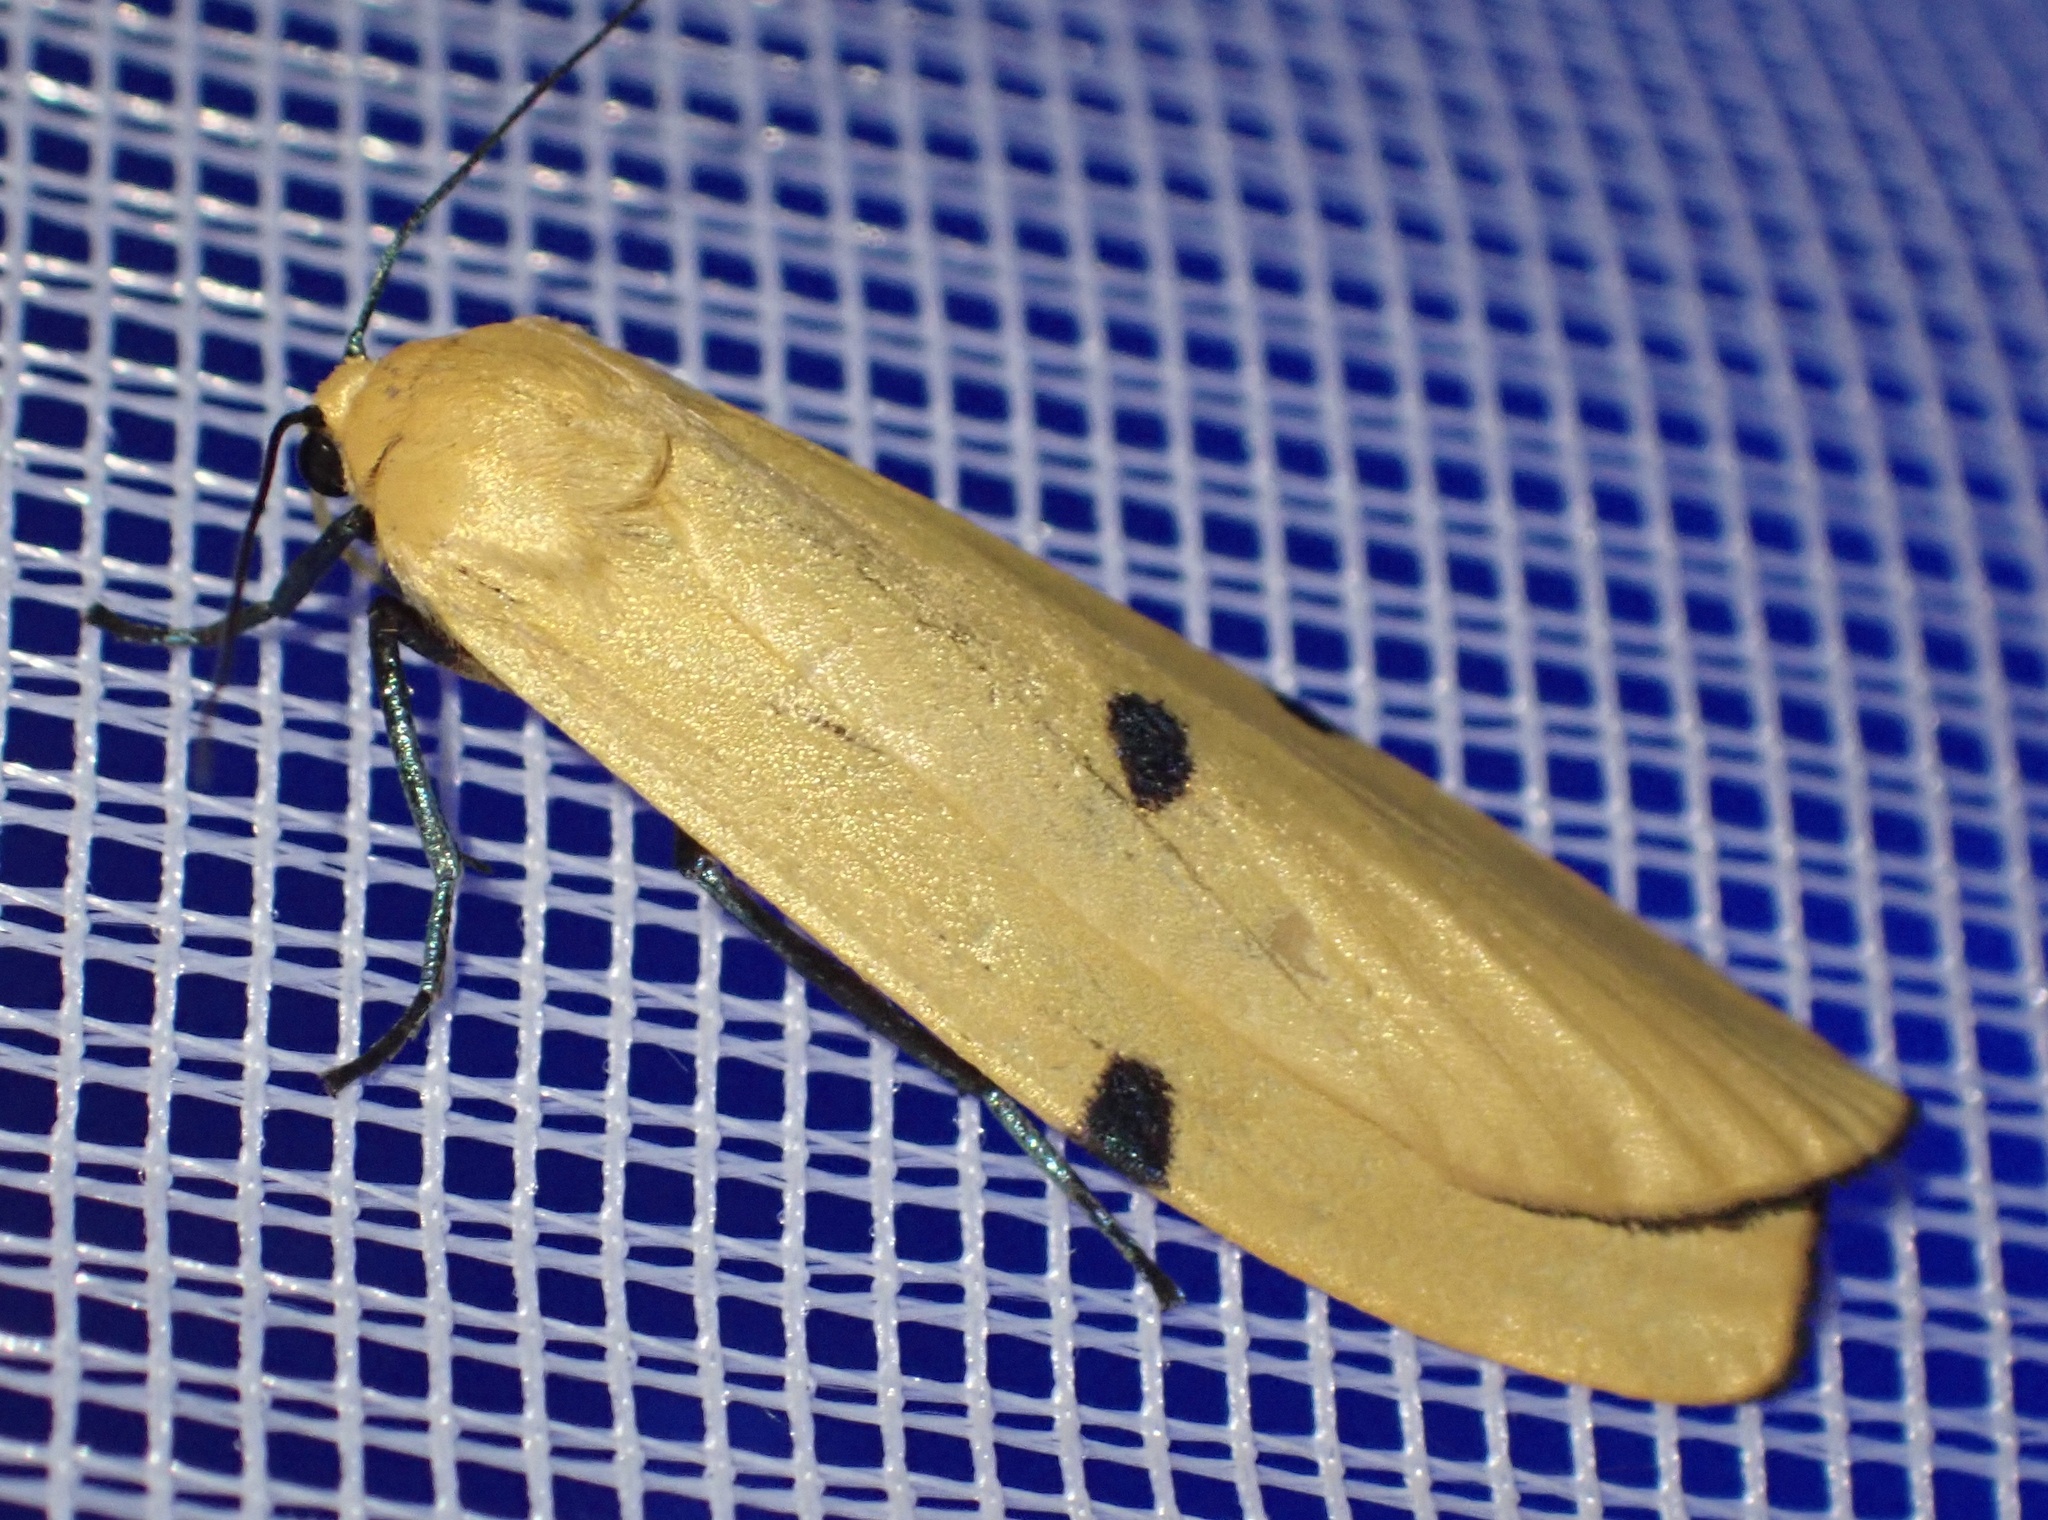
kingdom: Animalia
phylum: Arthropoda
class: Insecta
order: Lepidoptera
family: Erebidae
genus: Lithosia
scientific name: Lithosia quadra
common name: Four-spotted footman
